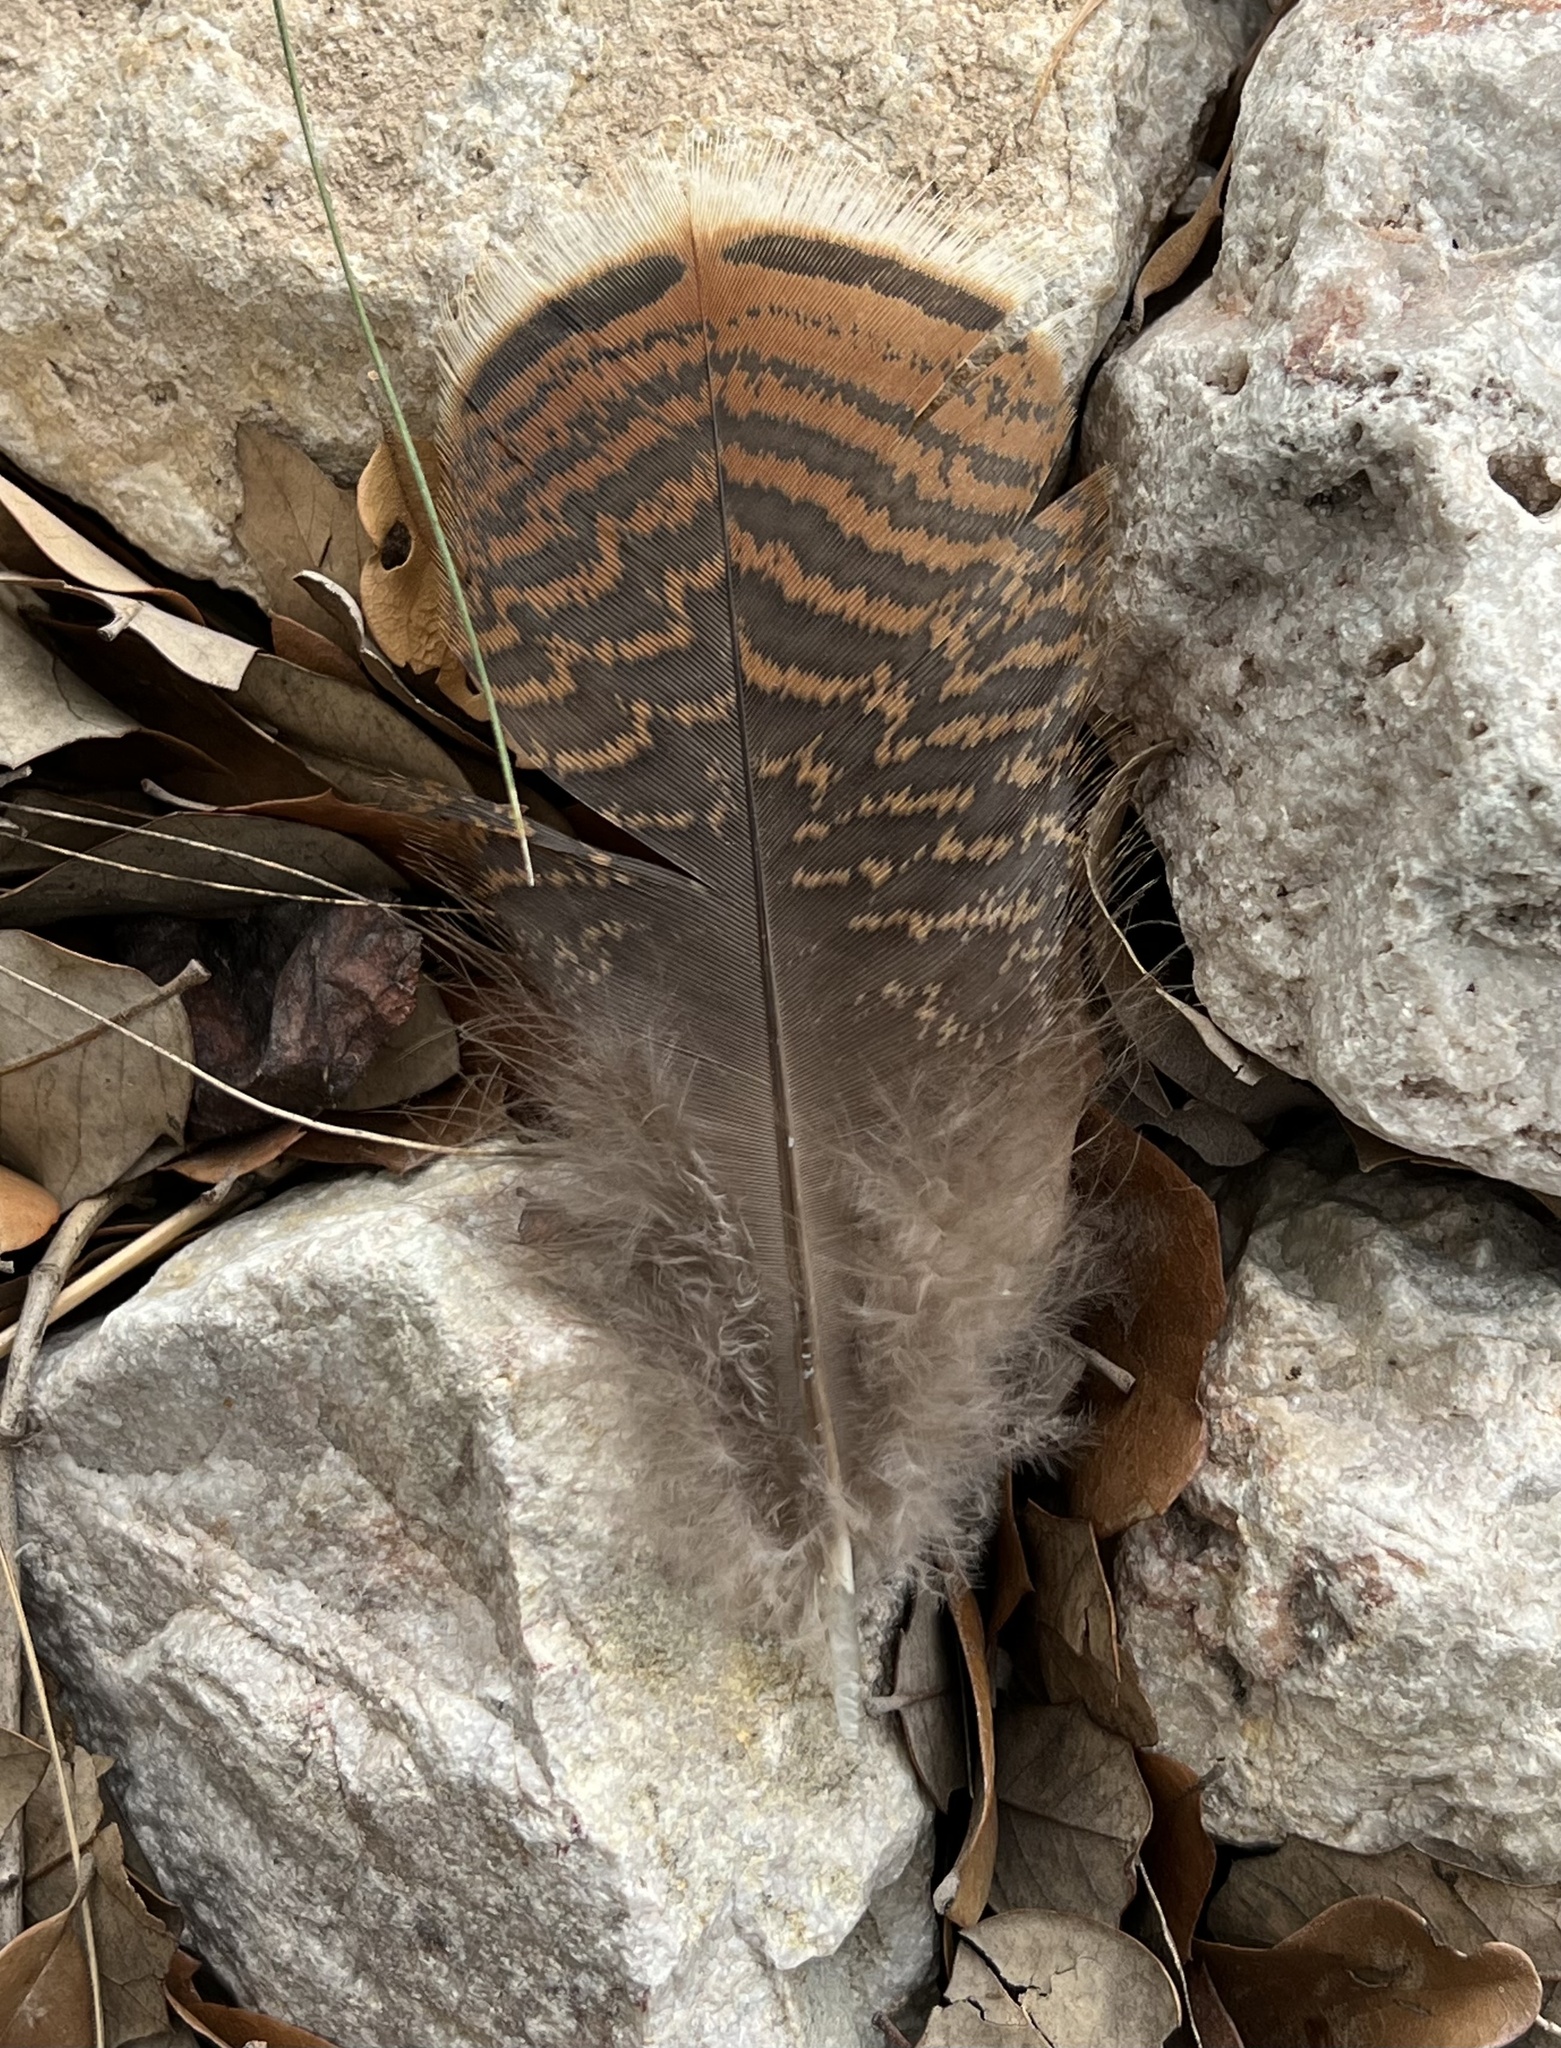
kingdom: Animalia
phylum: Chordata
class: Aves
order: Galliformes
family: Phasianidae
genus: Meleagris
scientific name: Meleagris gallopavo
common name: Wild turkey
